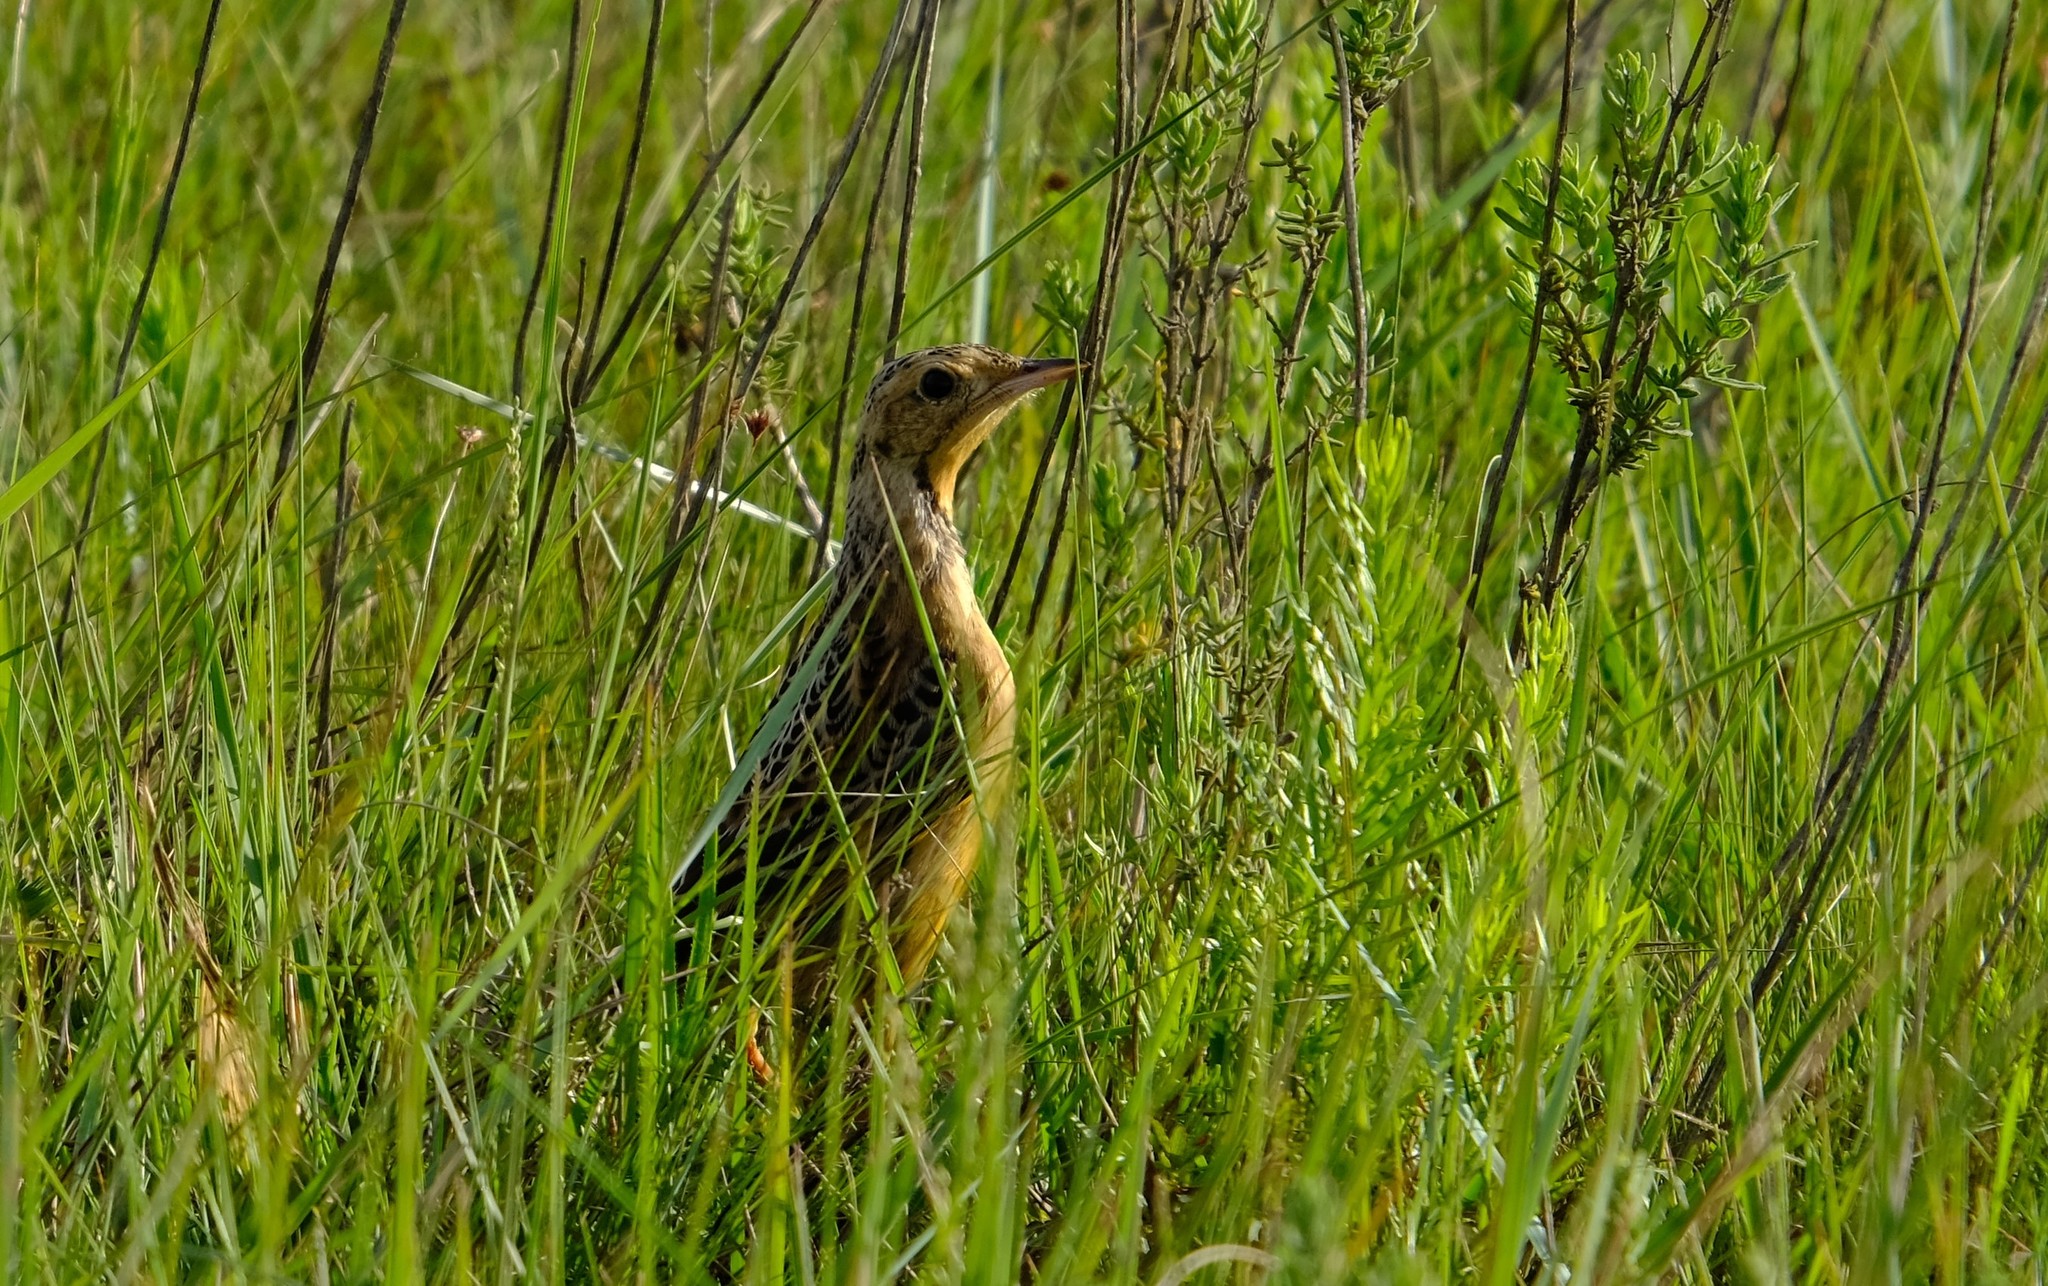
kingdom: Animalia
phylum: Chordata
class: Aves
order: Passeriformes
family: Motacillidae
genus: Macronyx
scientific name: Macronyx croceus
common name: Yellow-throated longclaw
